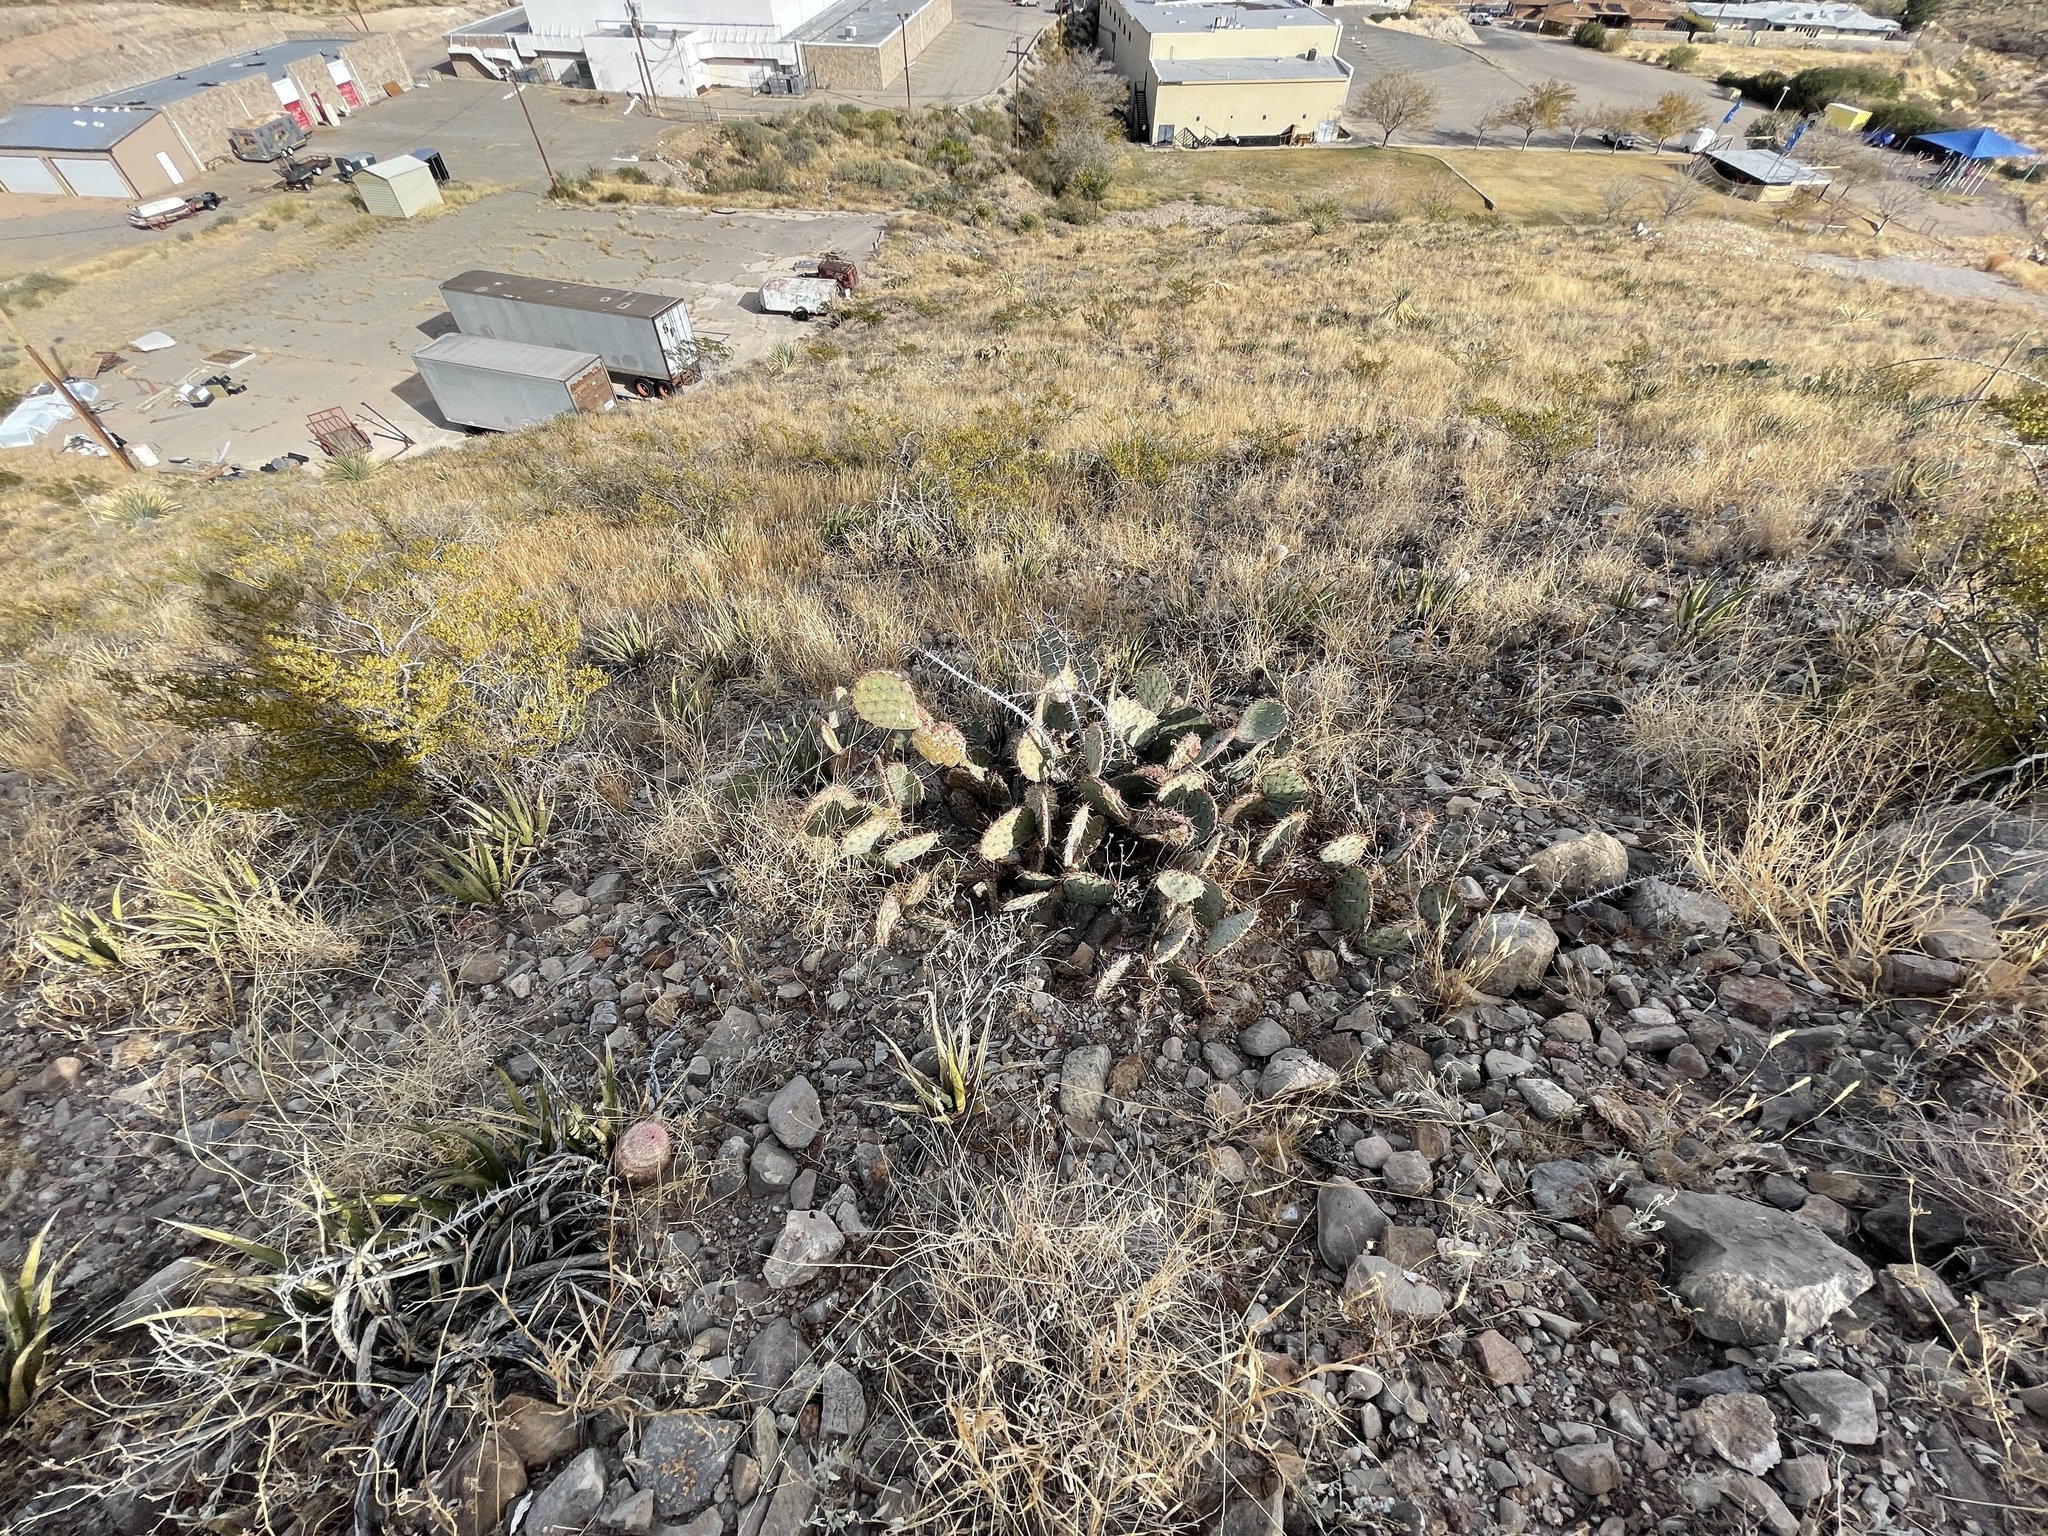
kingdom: Plantae
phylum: Tracheophyta
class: Magnoliopsida
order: Caryophyllales
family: Cactaceae
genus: Opuntia
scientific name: Opuntia phaeacantha
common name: New mexico prickly-pear
